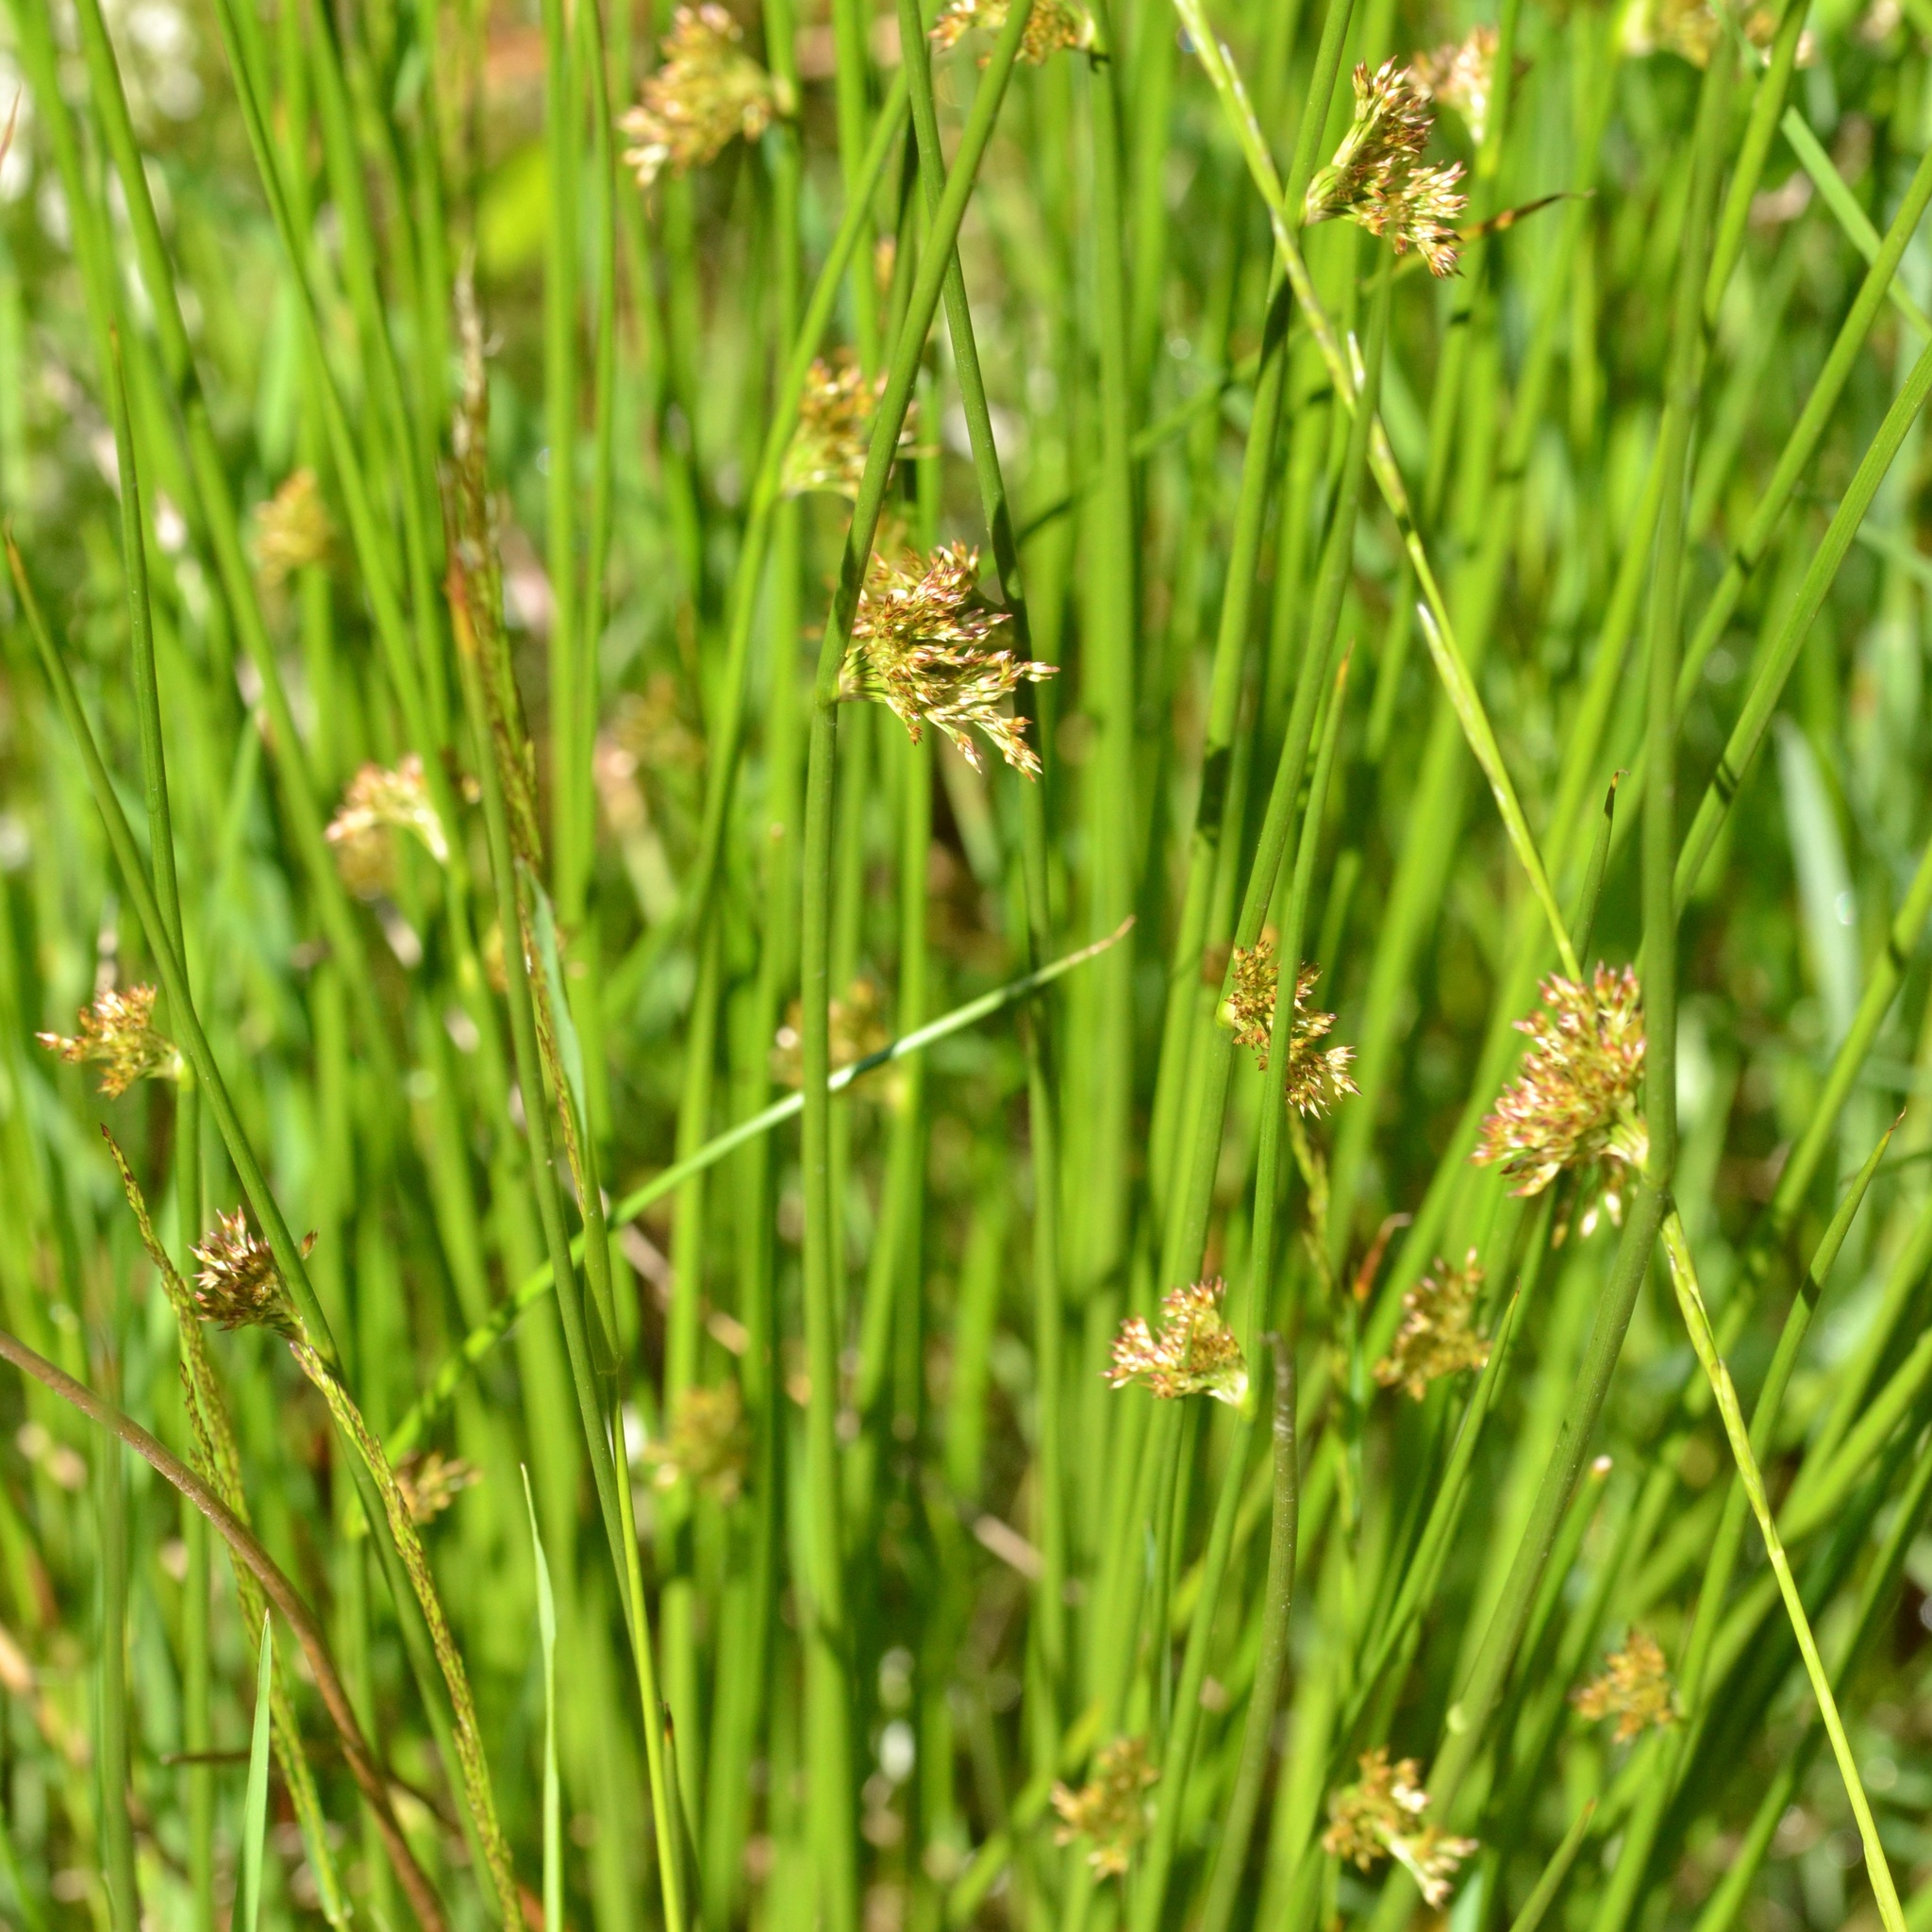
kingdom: Plantae
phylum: Tracheophyta
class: Liliopsida
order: Poales
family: Juncaceae
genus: Juncus
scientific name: Juncus effusus
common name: Soft rush
